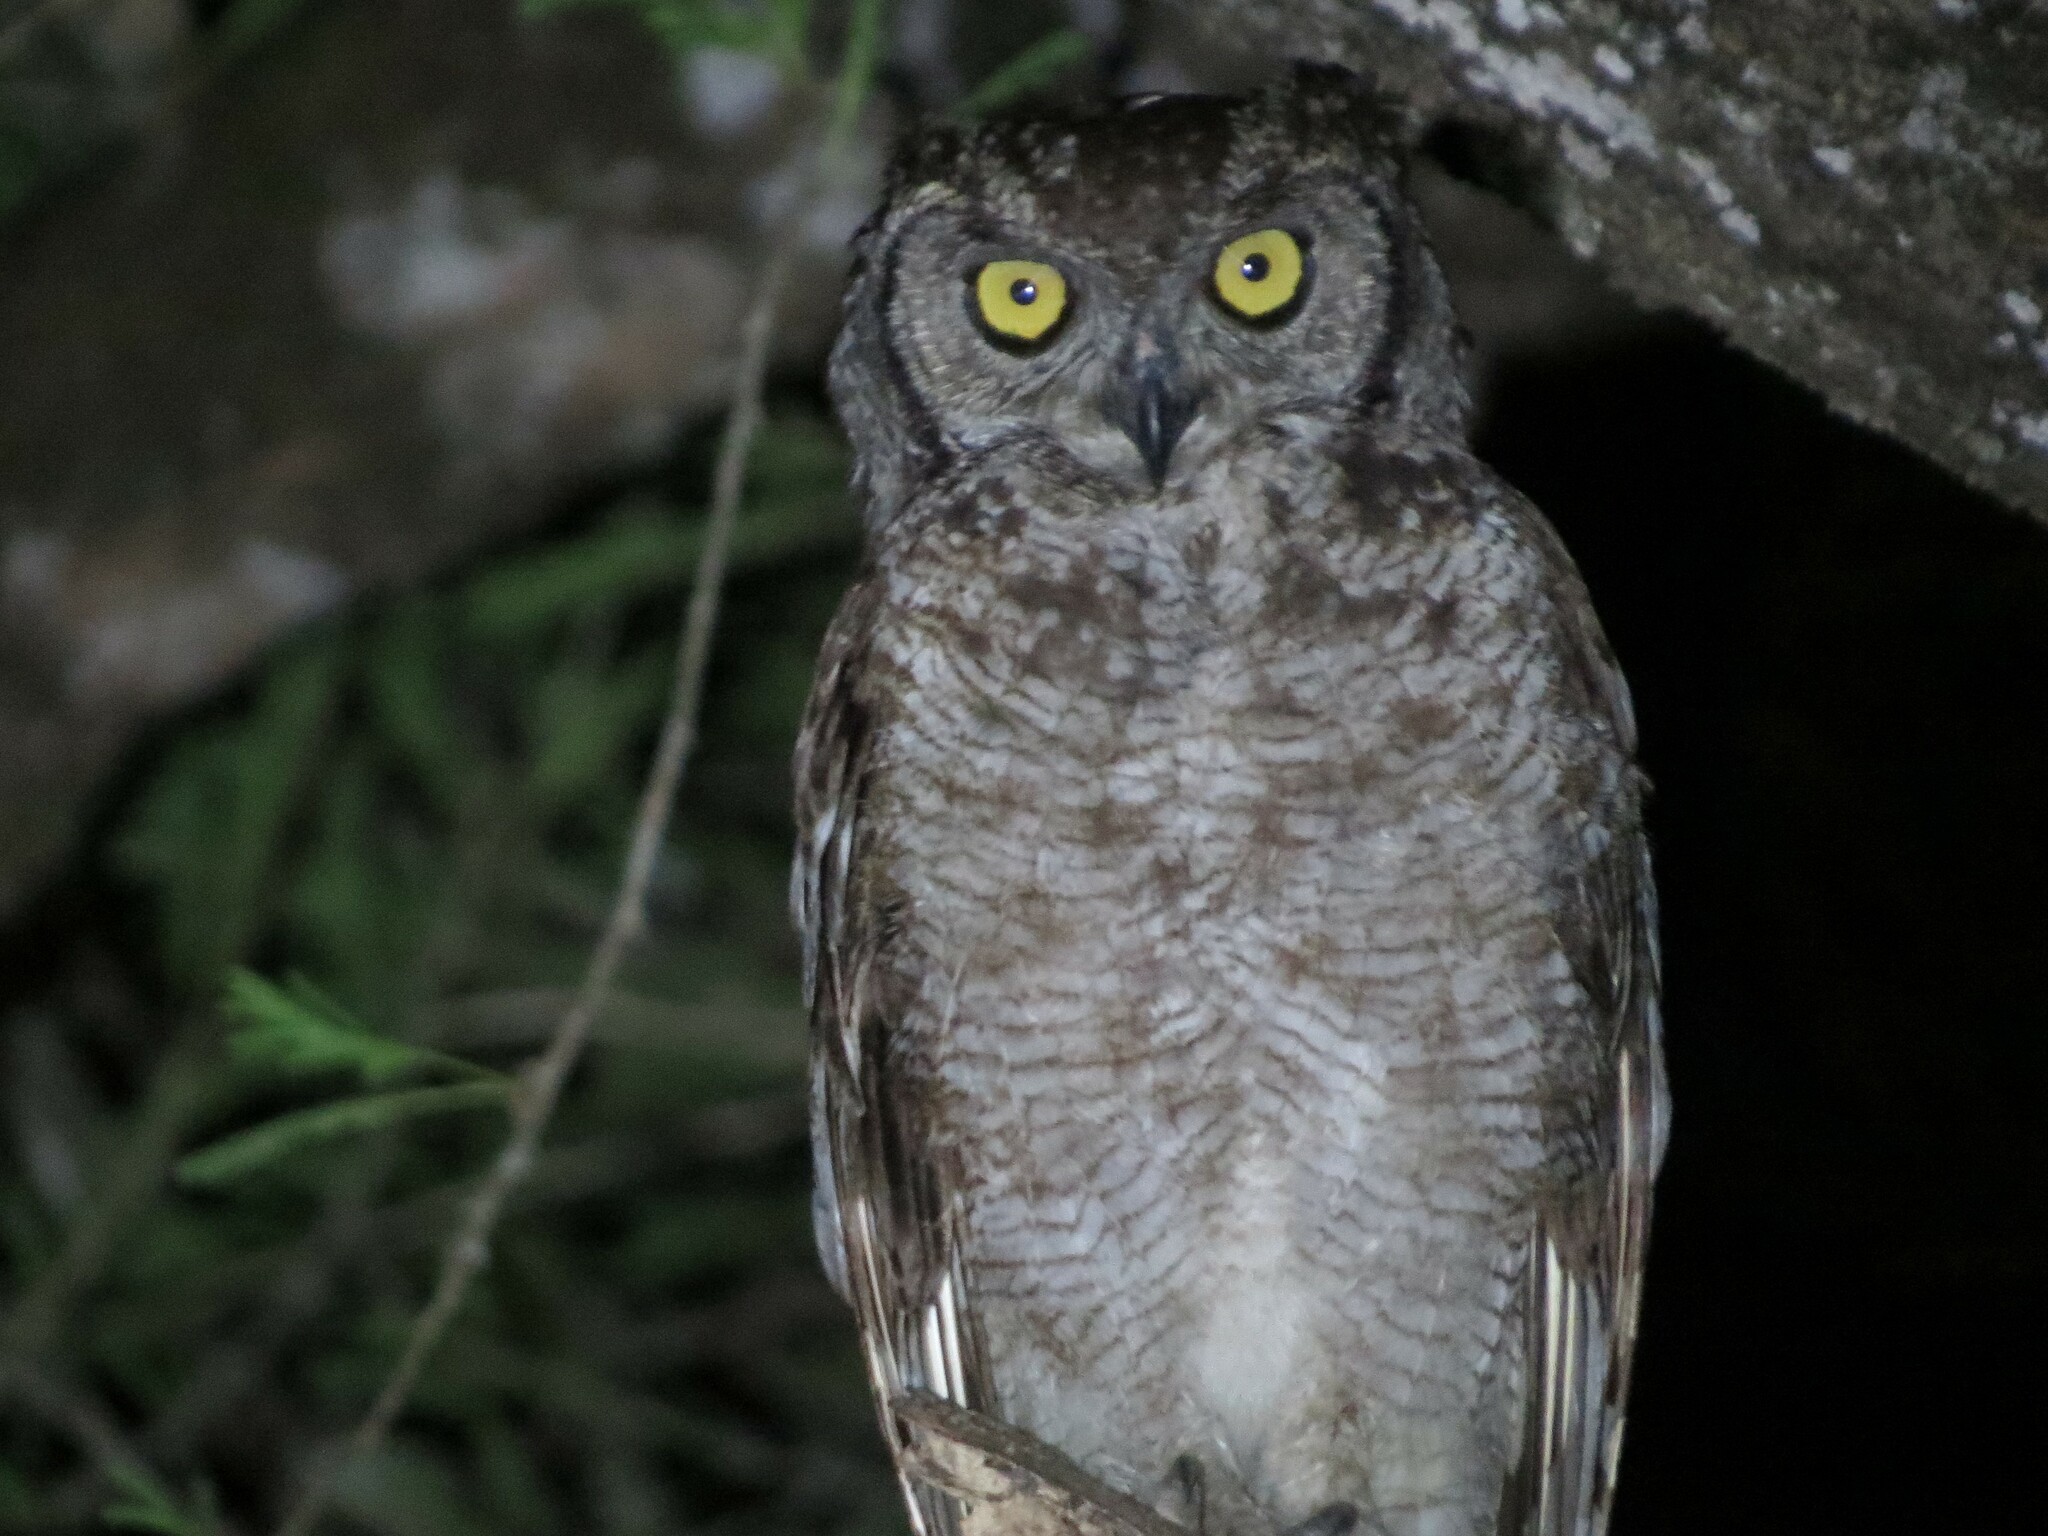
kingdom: Animalia
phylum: Chordata
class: Aves
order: Strigiformes
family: Strigidae
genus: Bubo
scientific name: Bubo africanus
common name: Spotted eagle-owl
